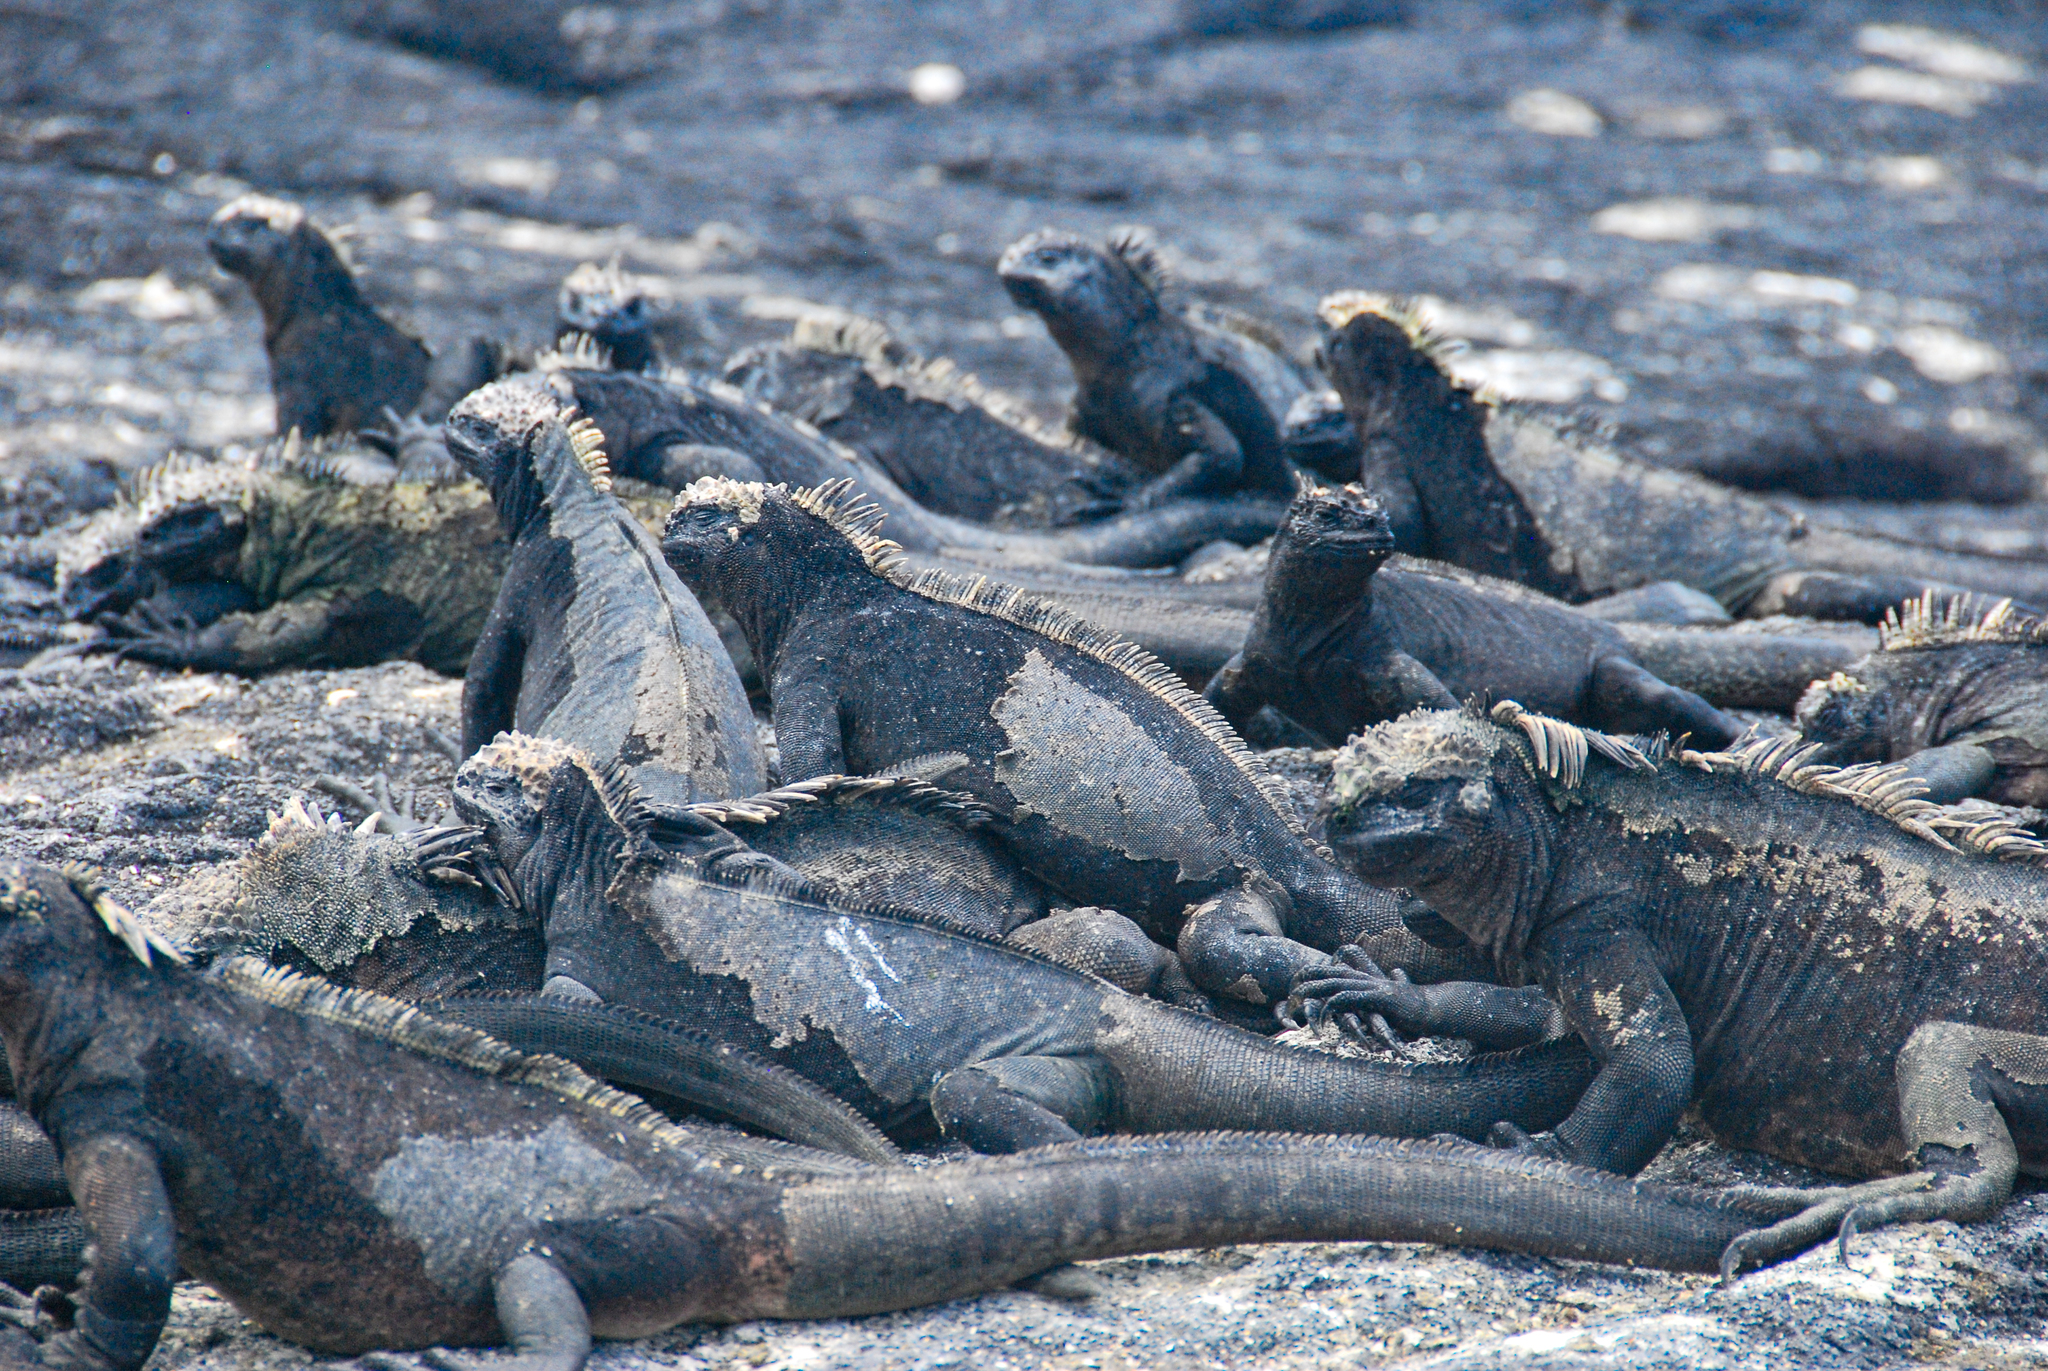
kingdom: Animalia
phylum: Chordata
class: Squamata
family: Iguanidae
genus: Amblyrhynchus
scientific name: Amblyrhynchus cristatus
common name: Marine iguana
